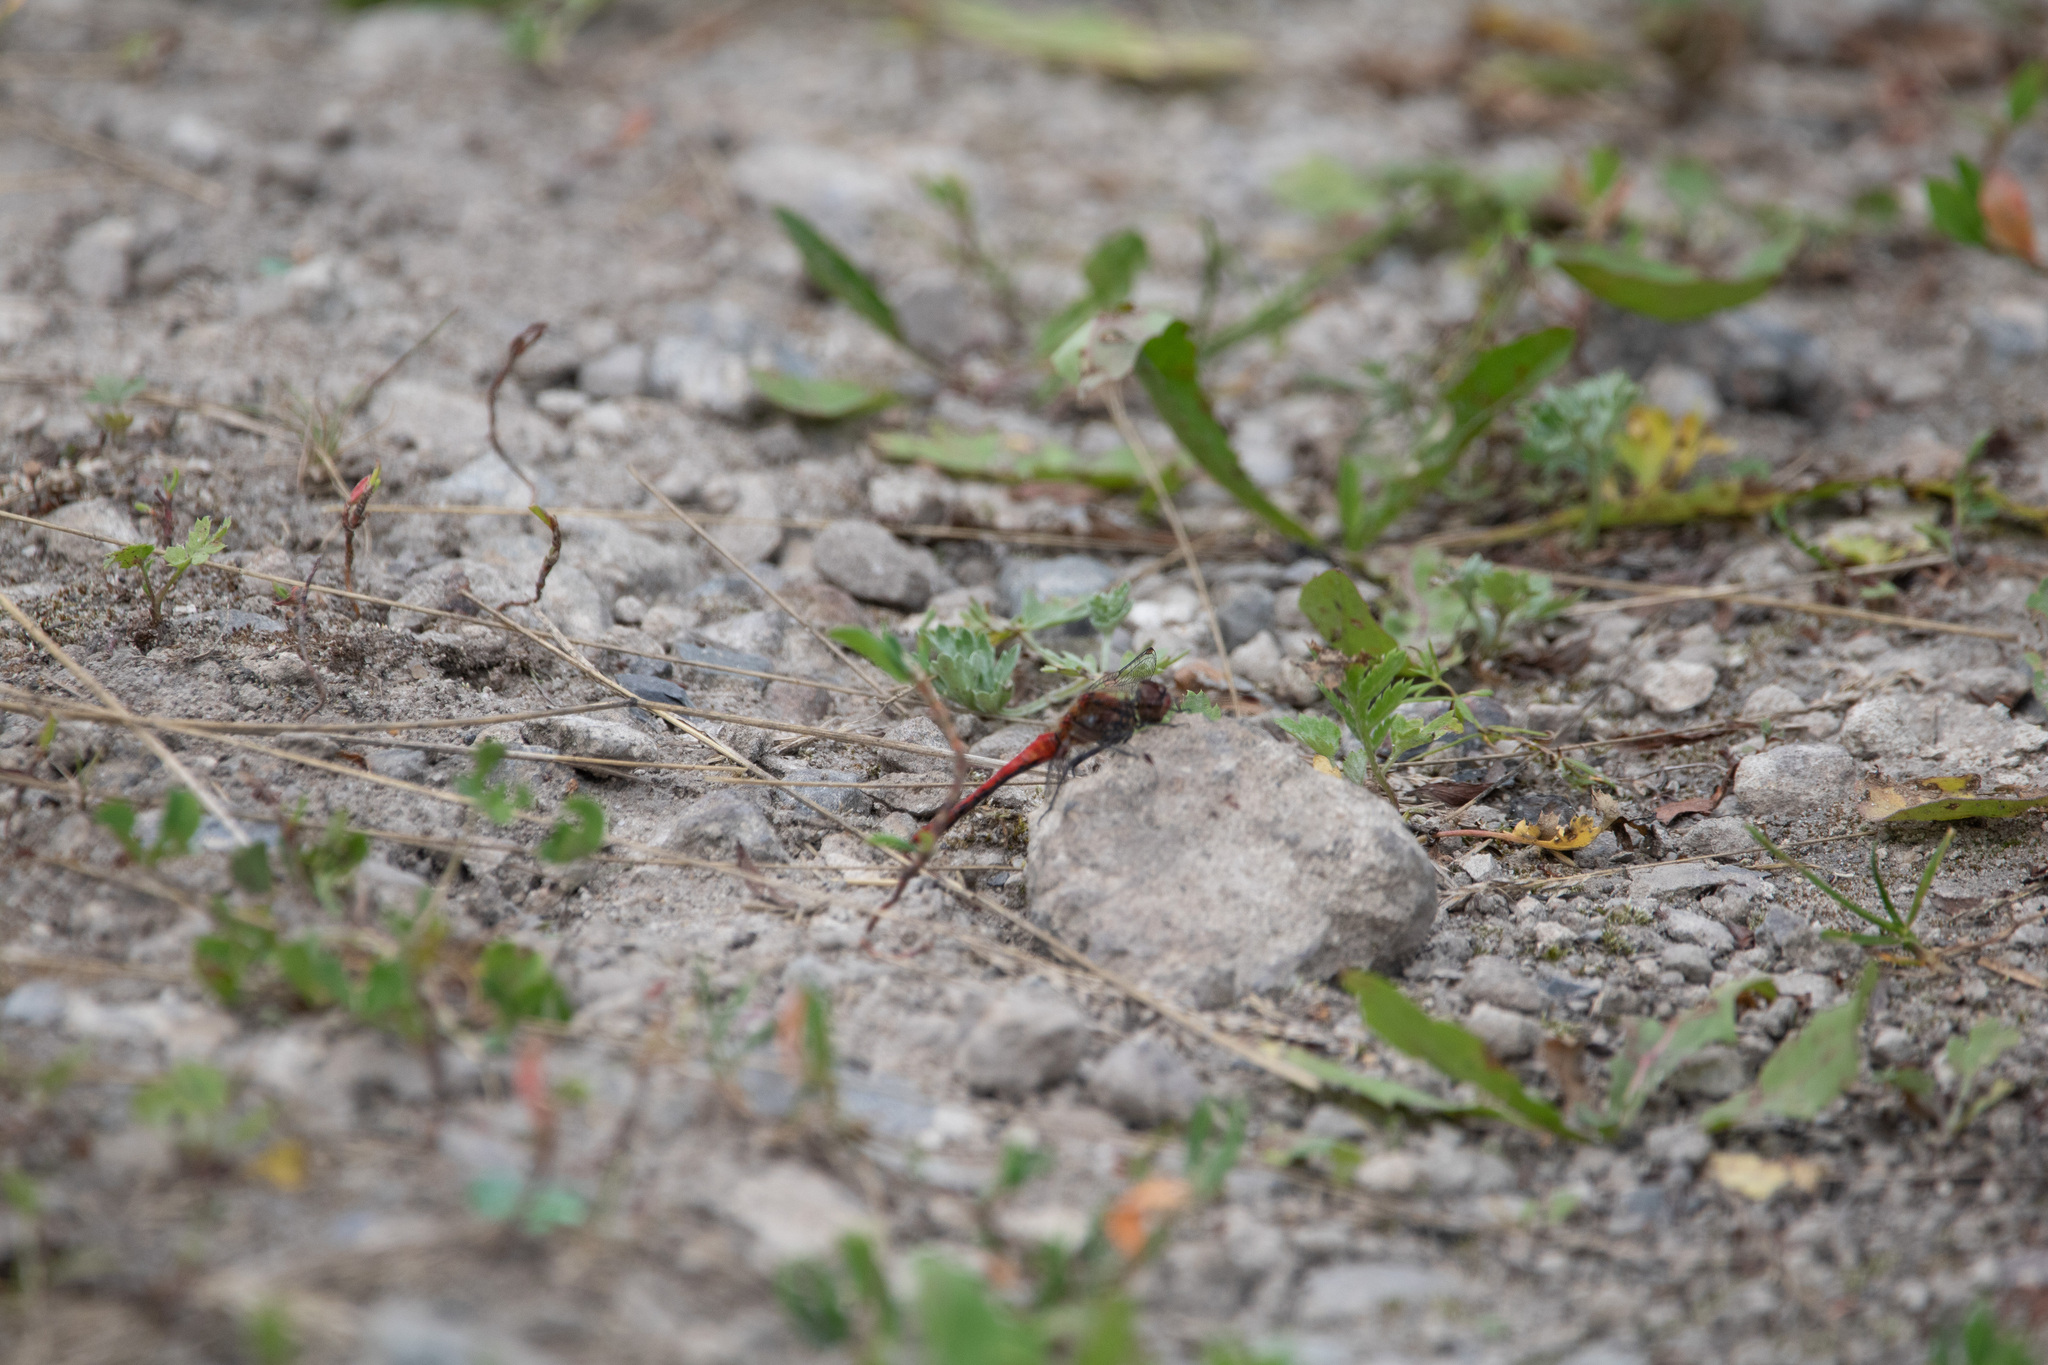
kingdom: Animalia
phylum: Arthropoda
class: Insecta
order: Odonata
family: Libellulidae
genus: Sympetrum
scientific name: Sympetrum sanguineum
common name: Ruddy darter
